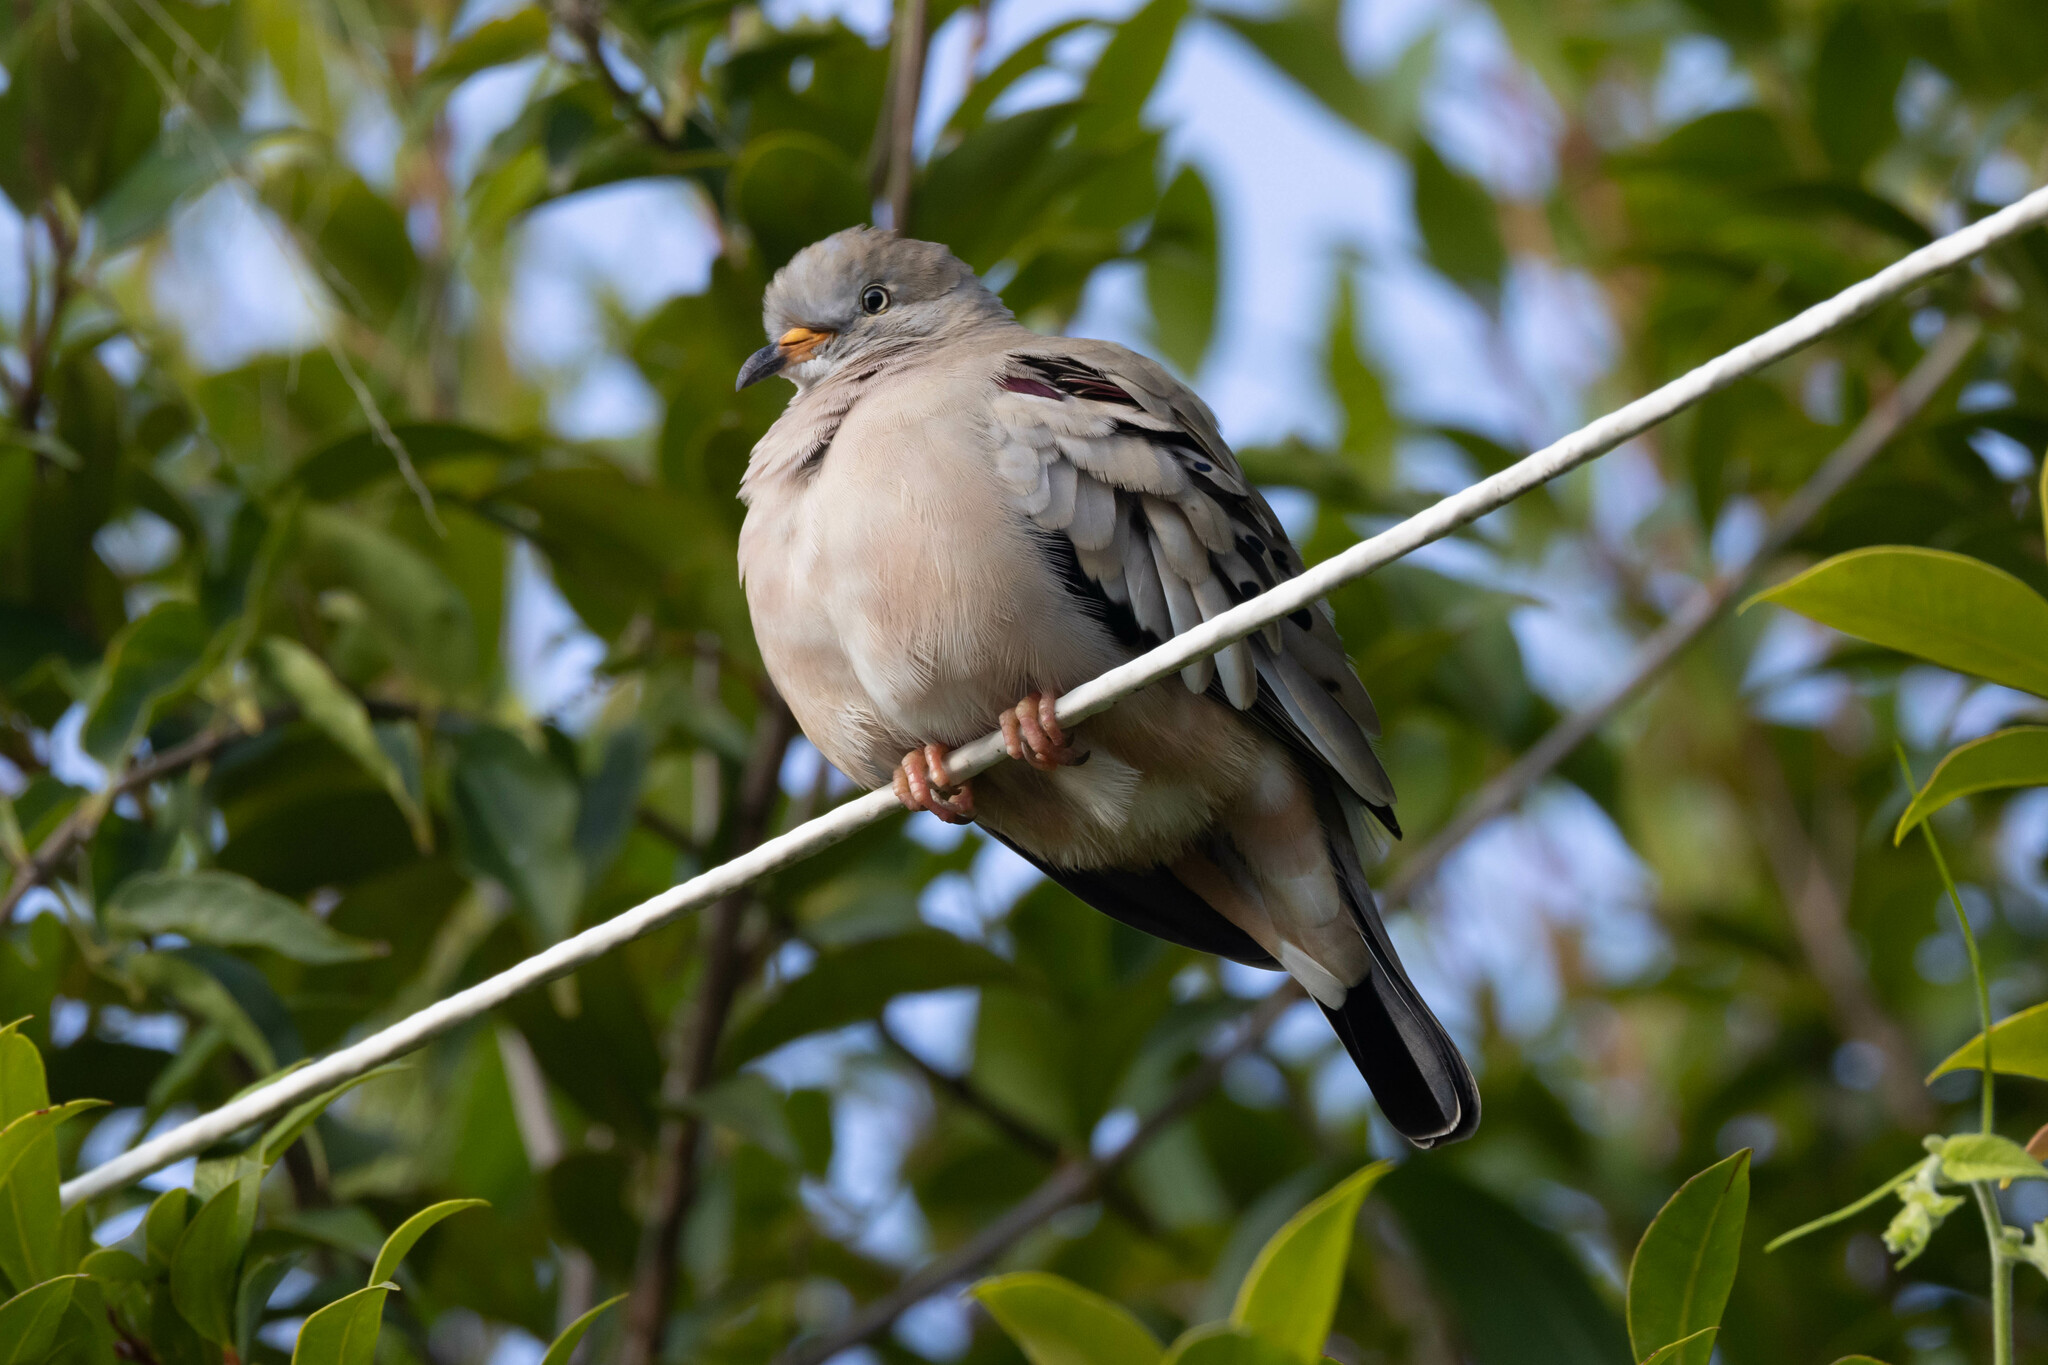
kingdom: Animalia
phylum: Chordata
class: Aves
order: Columbiformes
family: Columbidae
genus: Columbina
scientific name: Columbina cruziana
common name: Croaking ground dove
